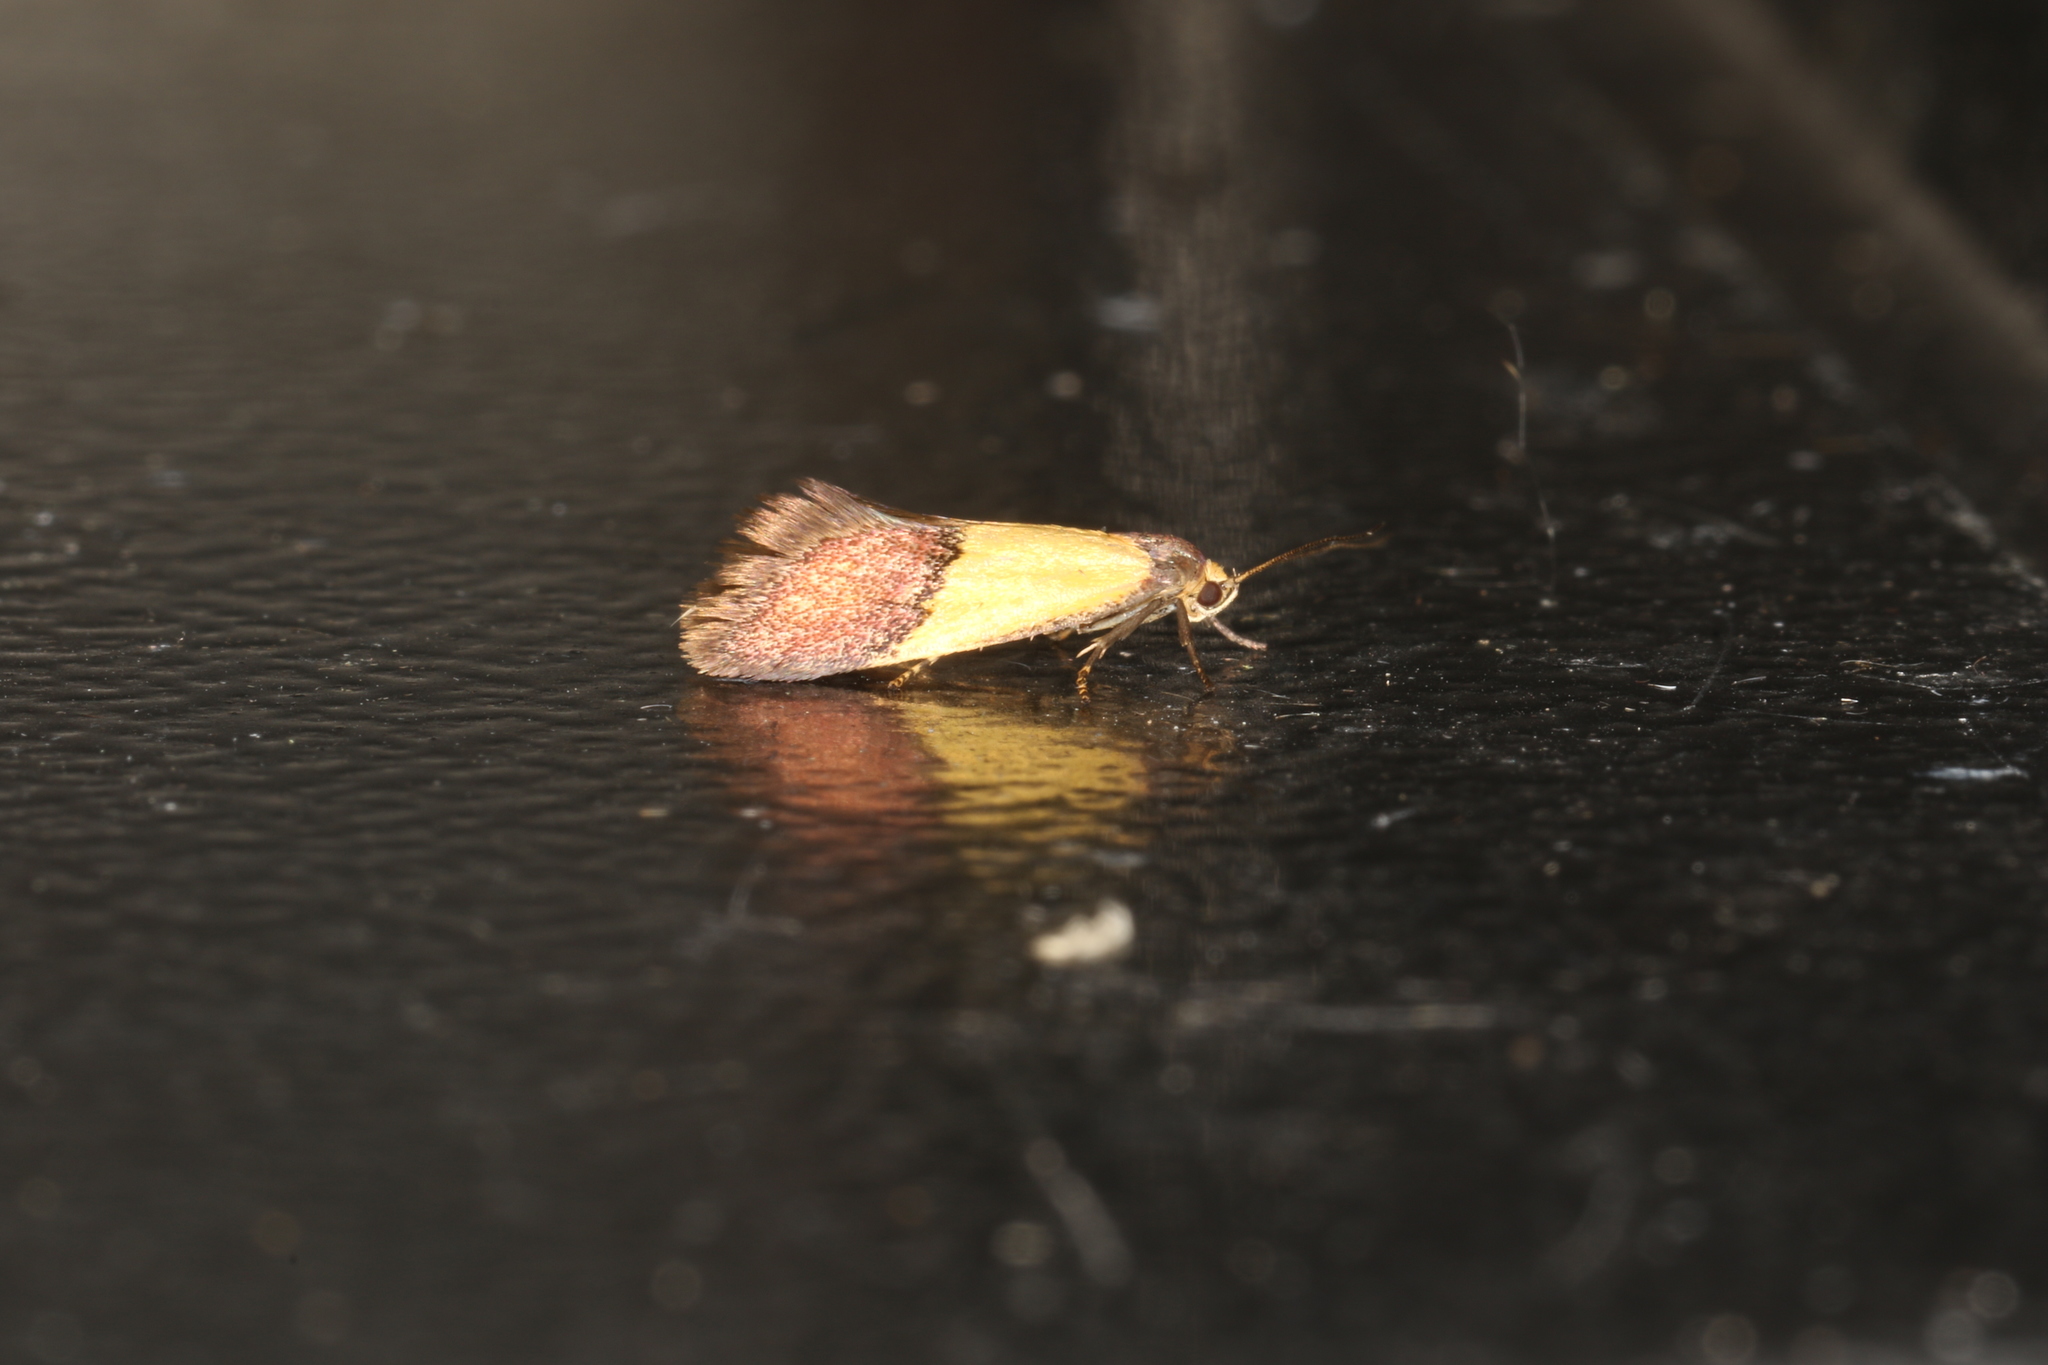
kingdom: Animalia
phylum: Arthropoda
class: Insecta
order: Lepidoptera
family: Oecophoridae
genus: Hemibela
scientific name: Hemibela hemicalypta
